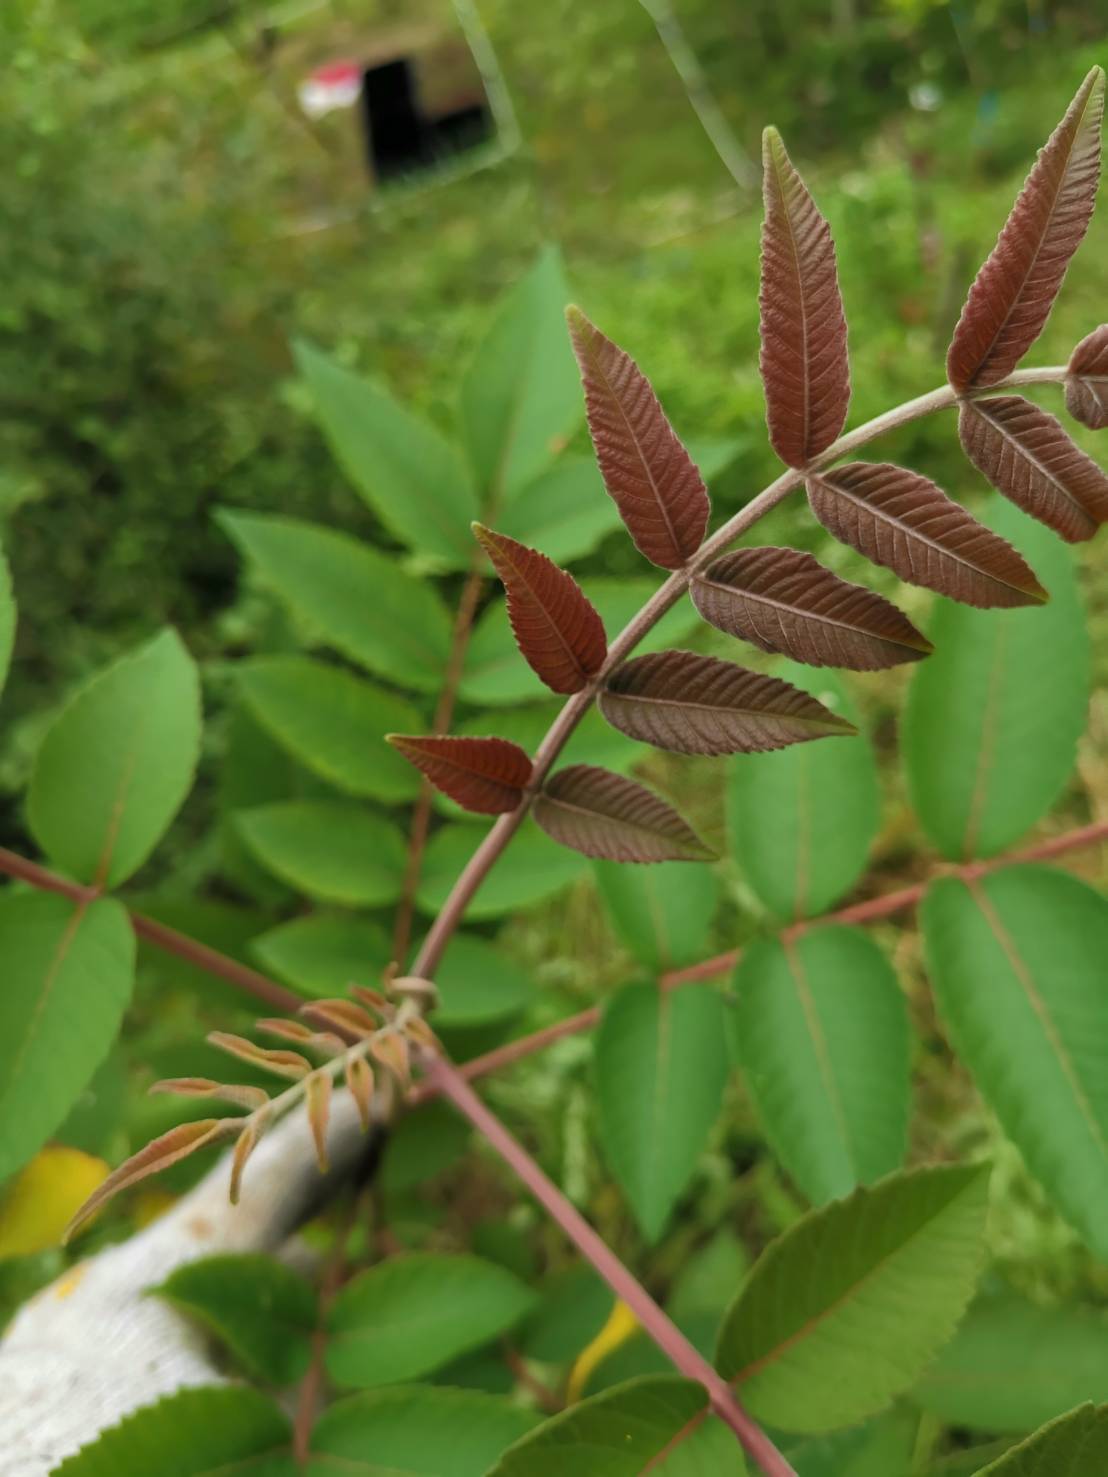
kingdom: Plantae
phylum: Tracheophyta
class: Magnoliopsida
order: Sapindales
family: Anacardiaceae
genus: Rhus
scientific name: Rhus chinensis
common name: Chinese gall
